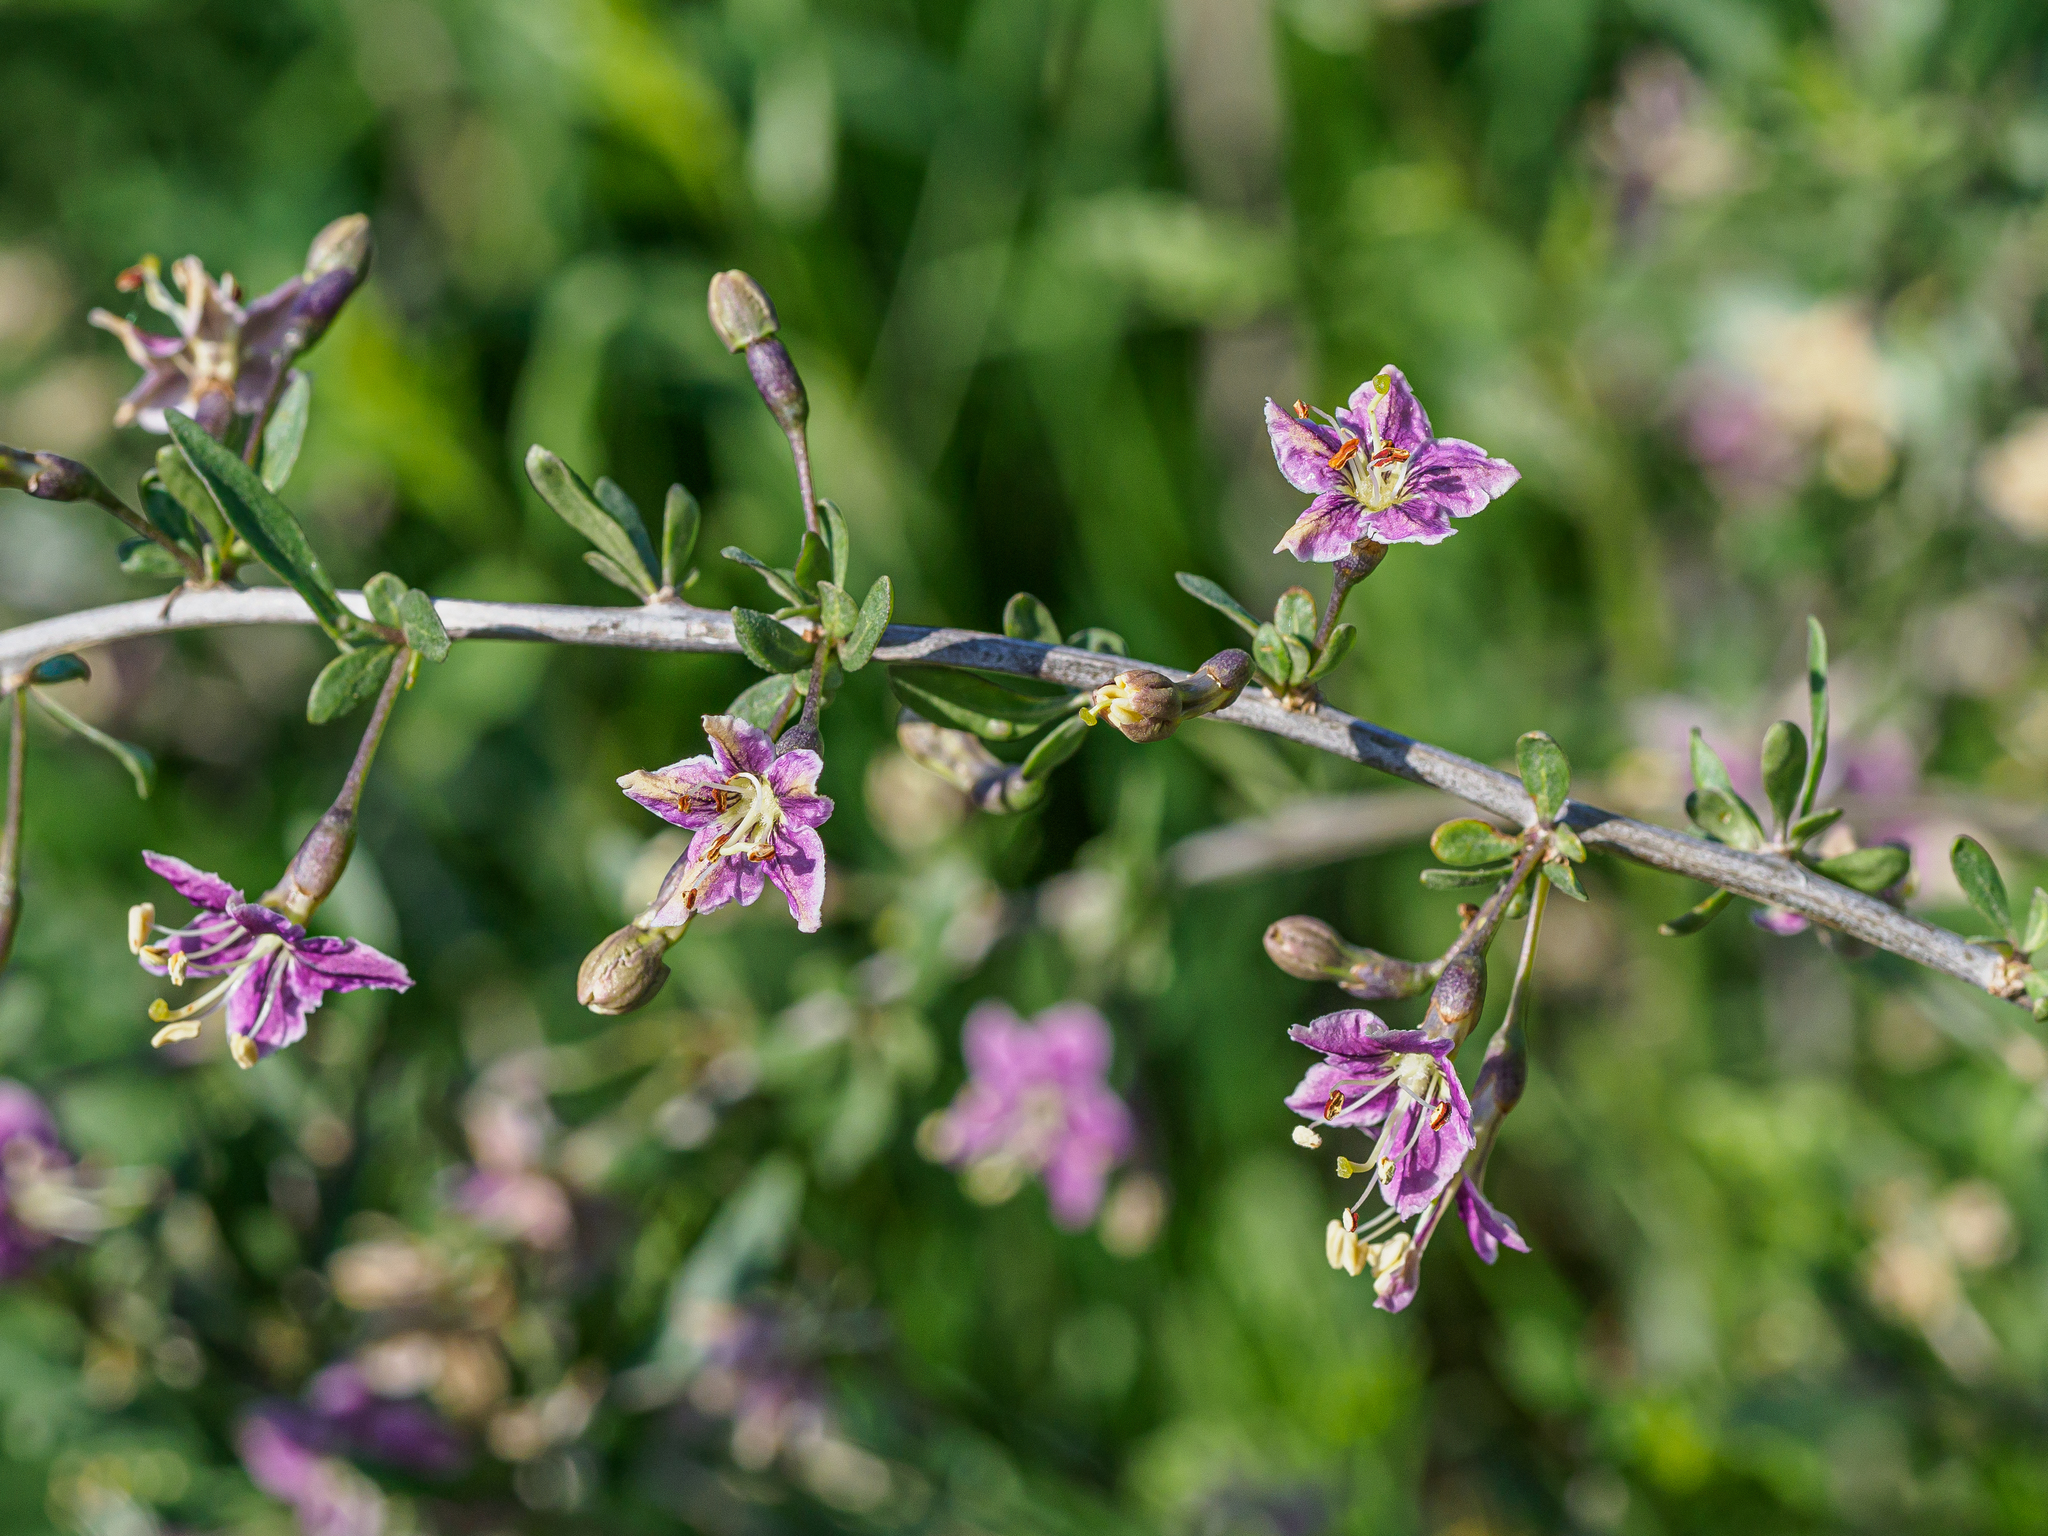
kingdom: Plantae
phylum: Tracheophyta
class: Magnoliopsida
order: Solanales
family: Solanaceae
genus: Lycium
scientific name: Lycium barbarum
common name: Duke of argyll's teaplant
